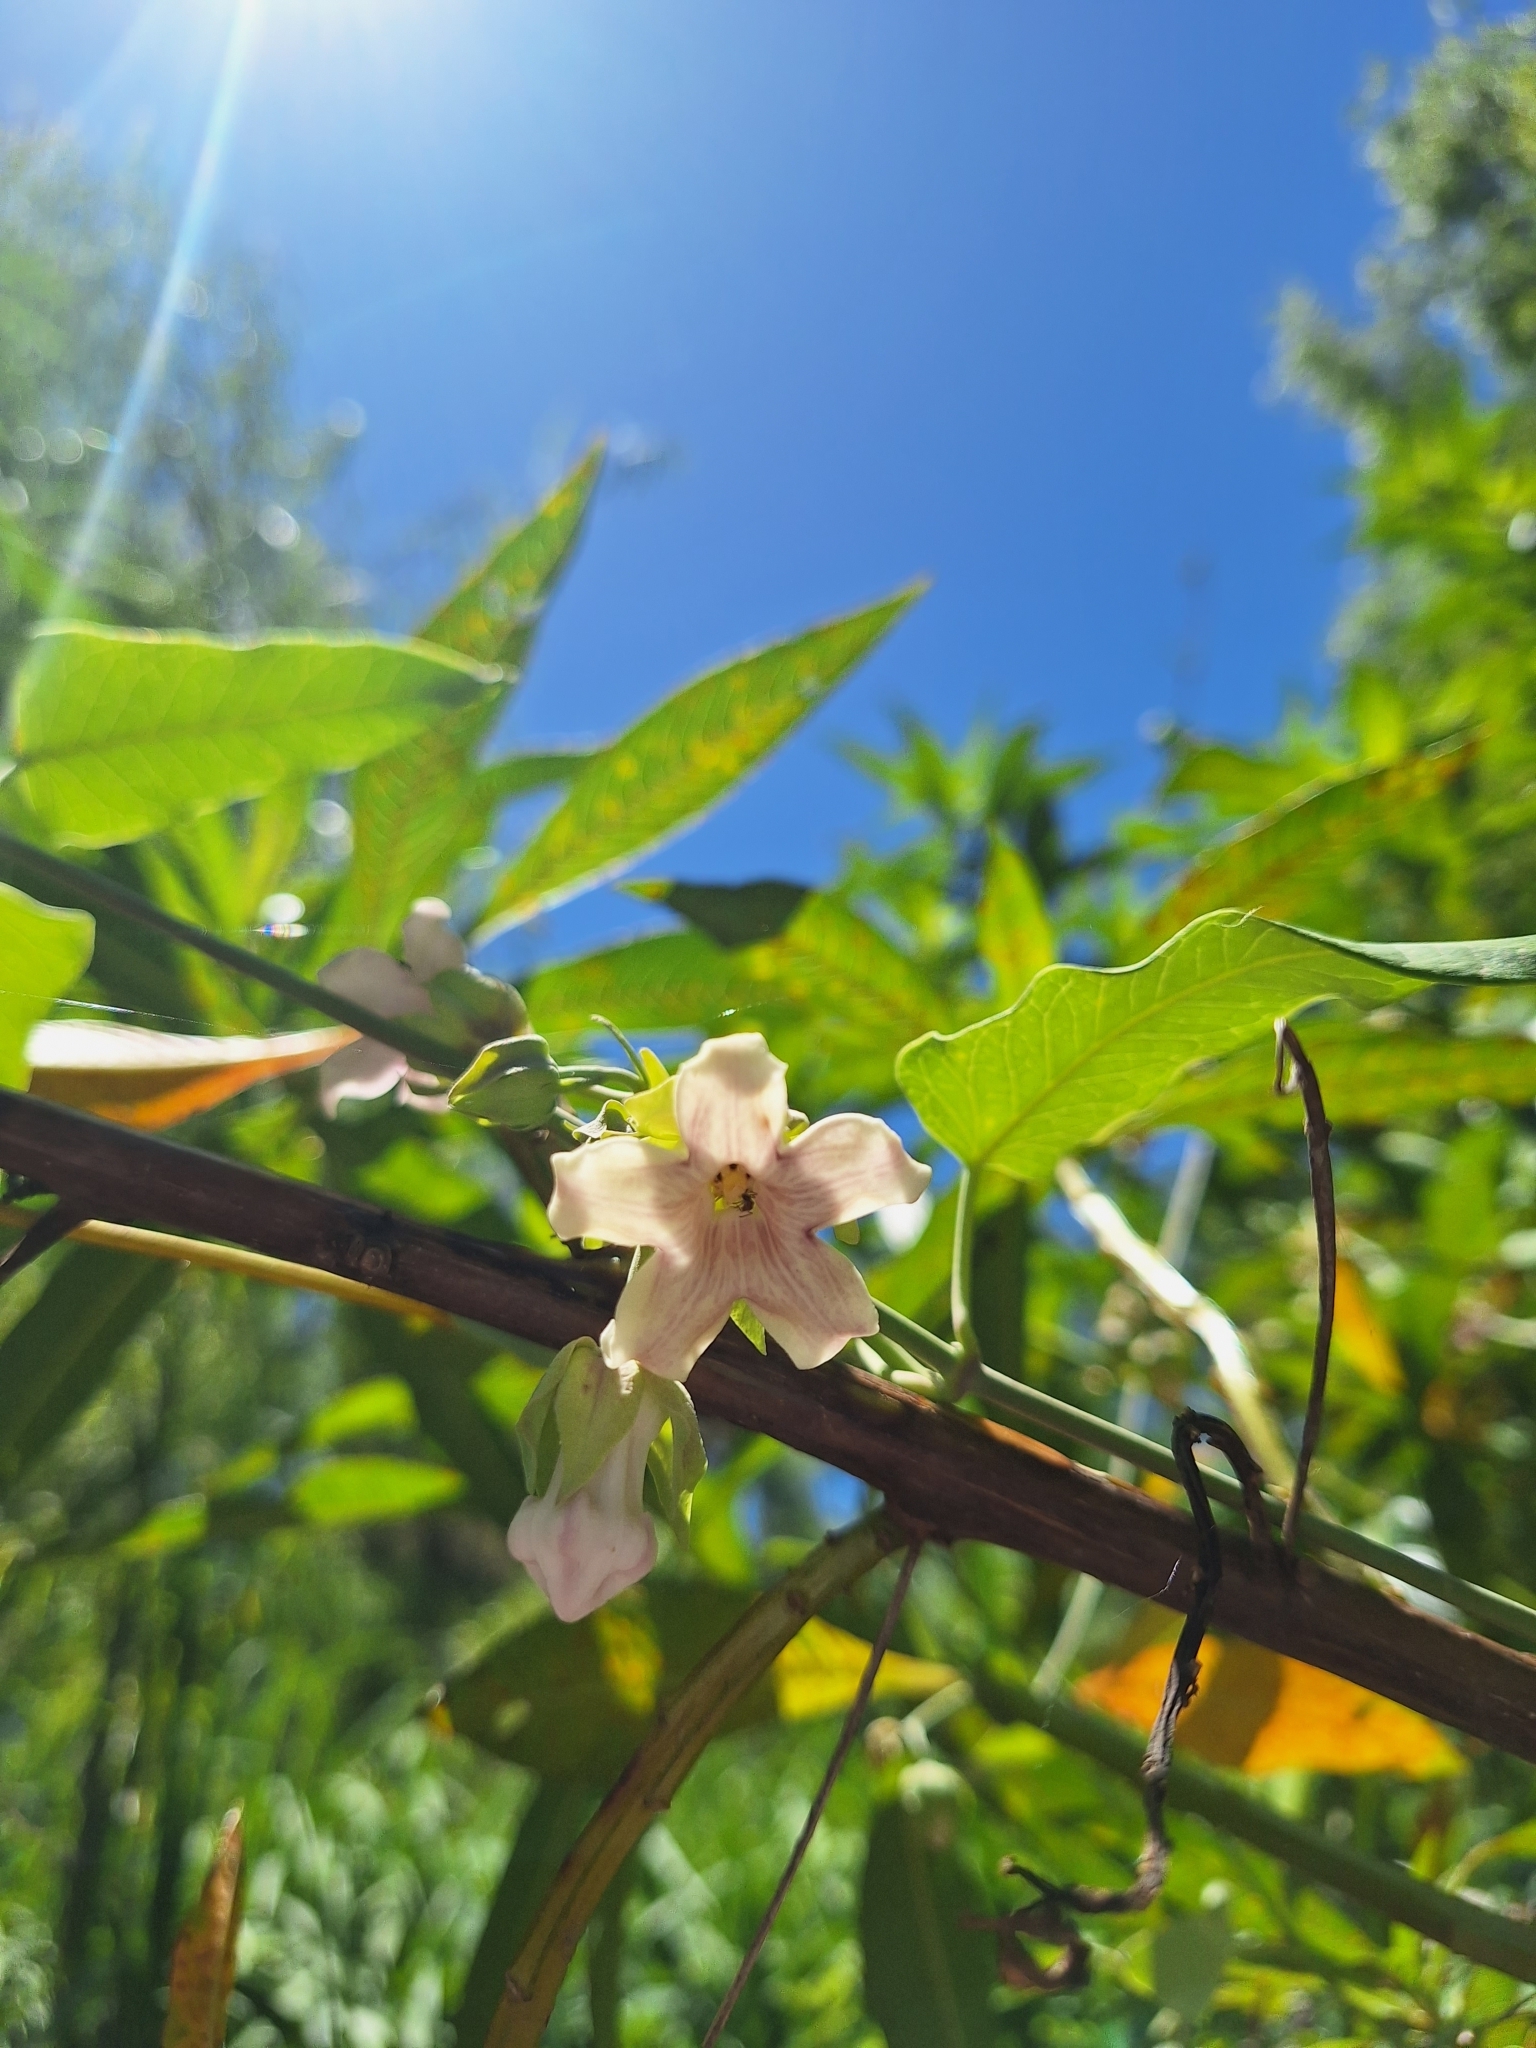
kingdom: Plantae
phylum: Tracheophyta
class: Magnoliopsida
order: Gentianales
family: Apocynaceae
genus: Araujia
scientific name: Araujia sericifera
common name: White bladderflower
